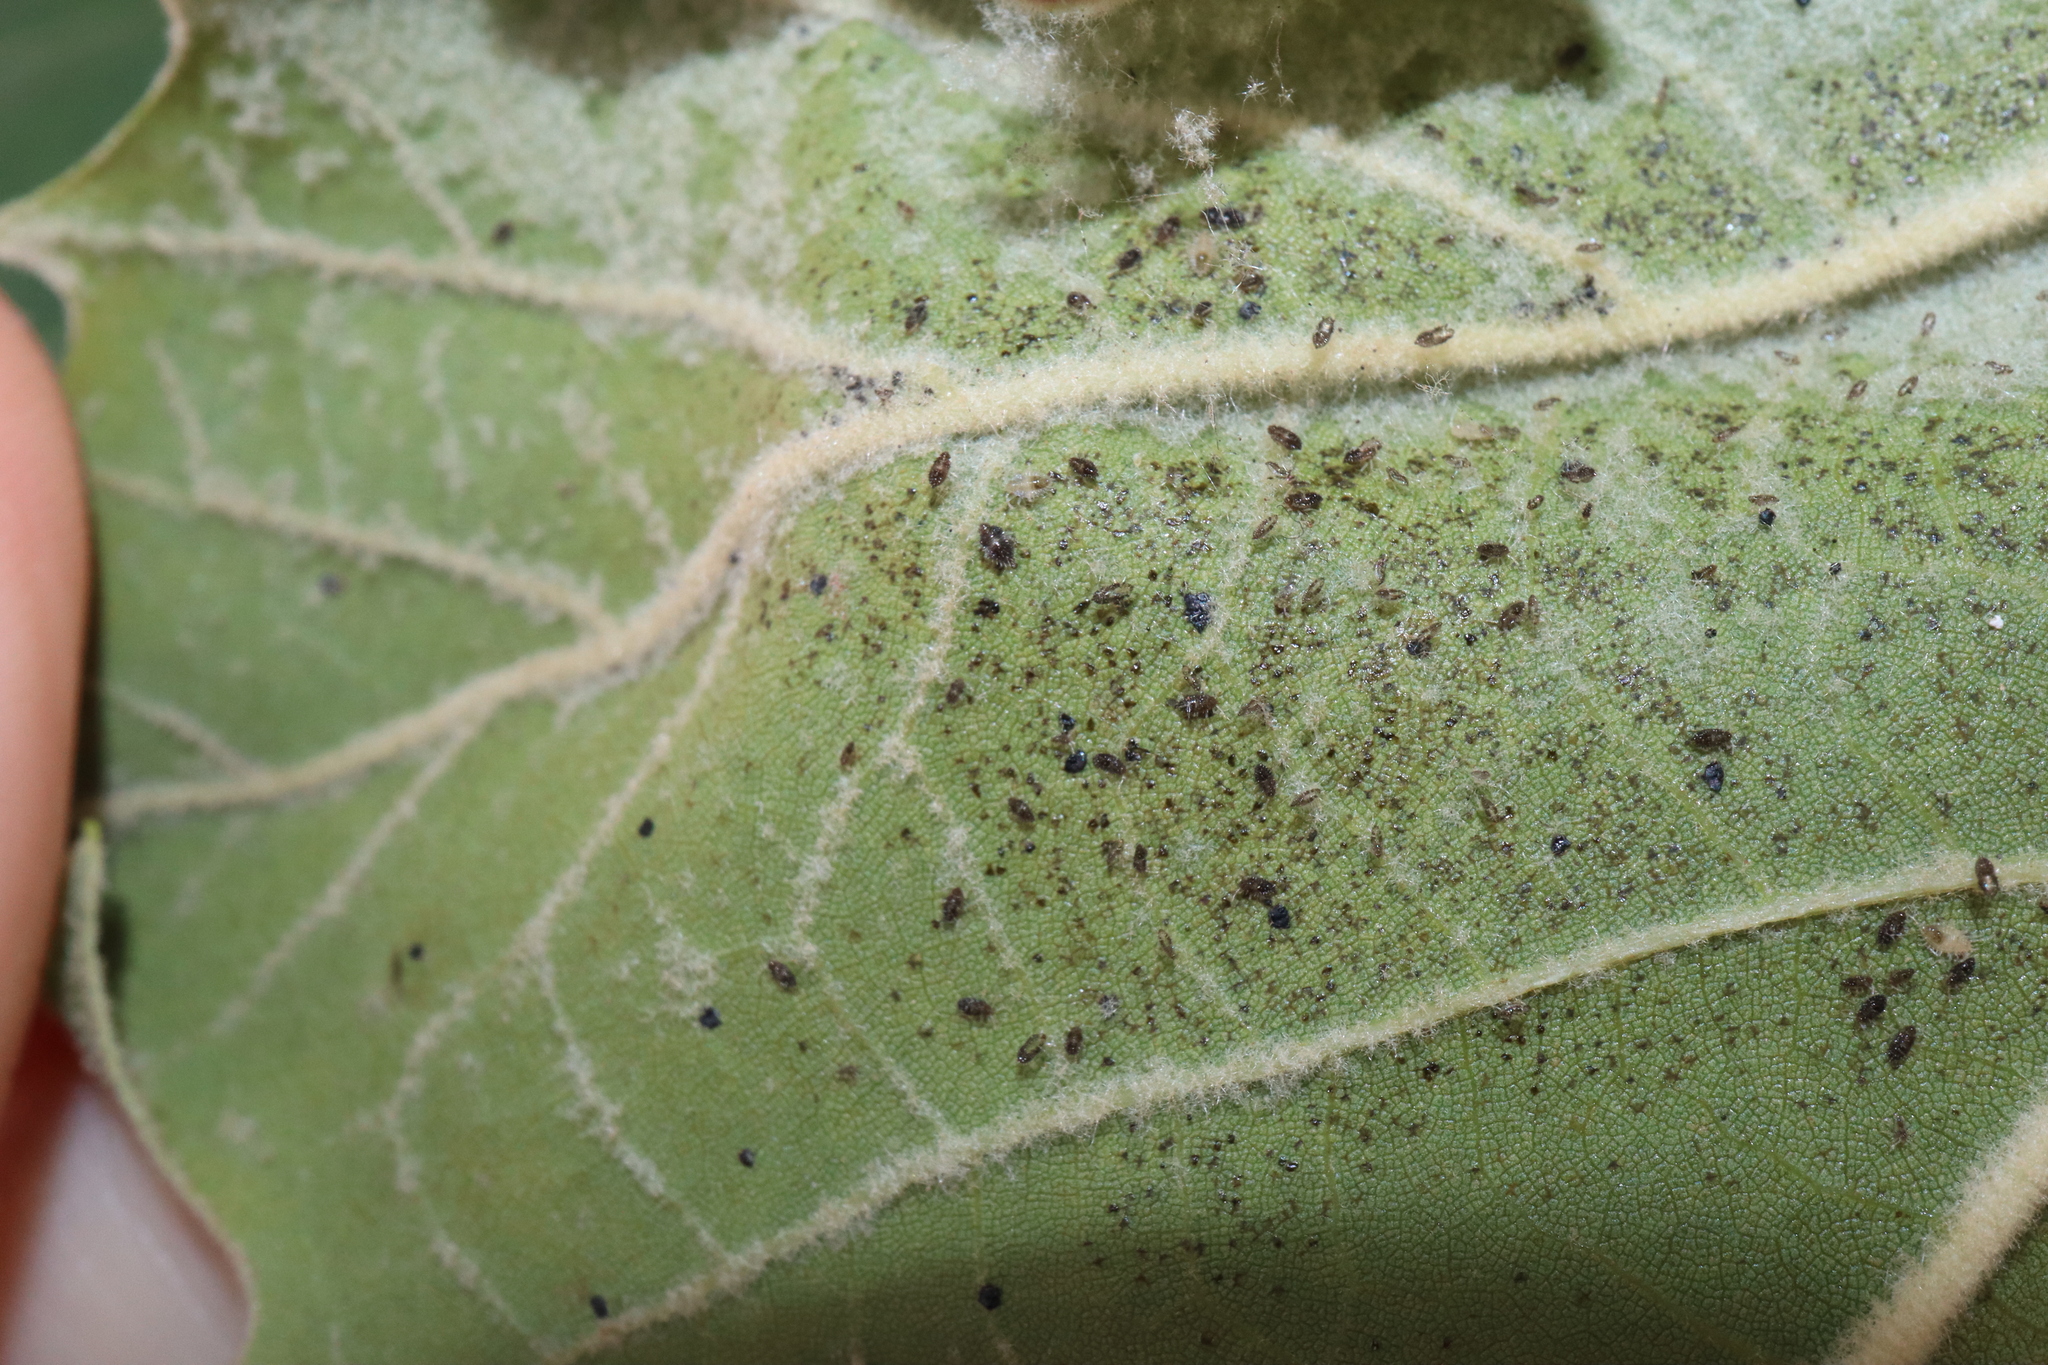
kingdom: Animalia
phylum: Arthropoda
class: Insecta
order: Hemiptera
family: Tingidae
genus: Corythucha
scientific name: Corythucha ciliata
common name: Sycamore lace bug
